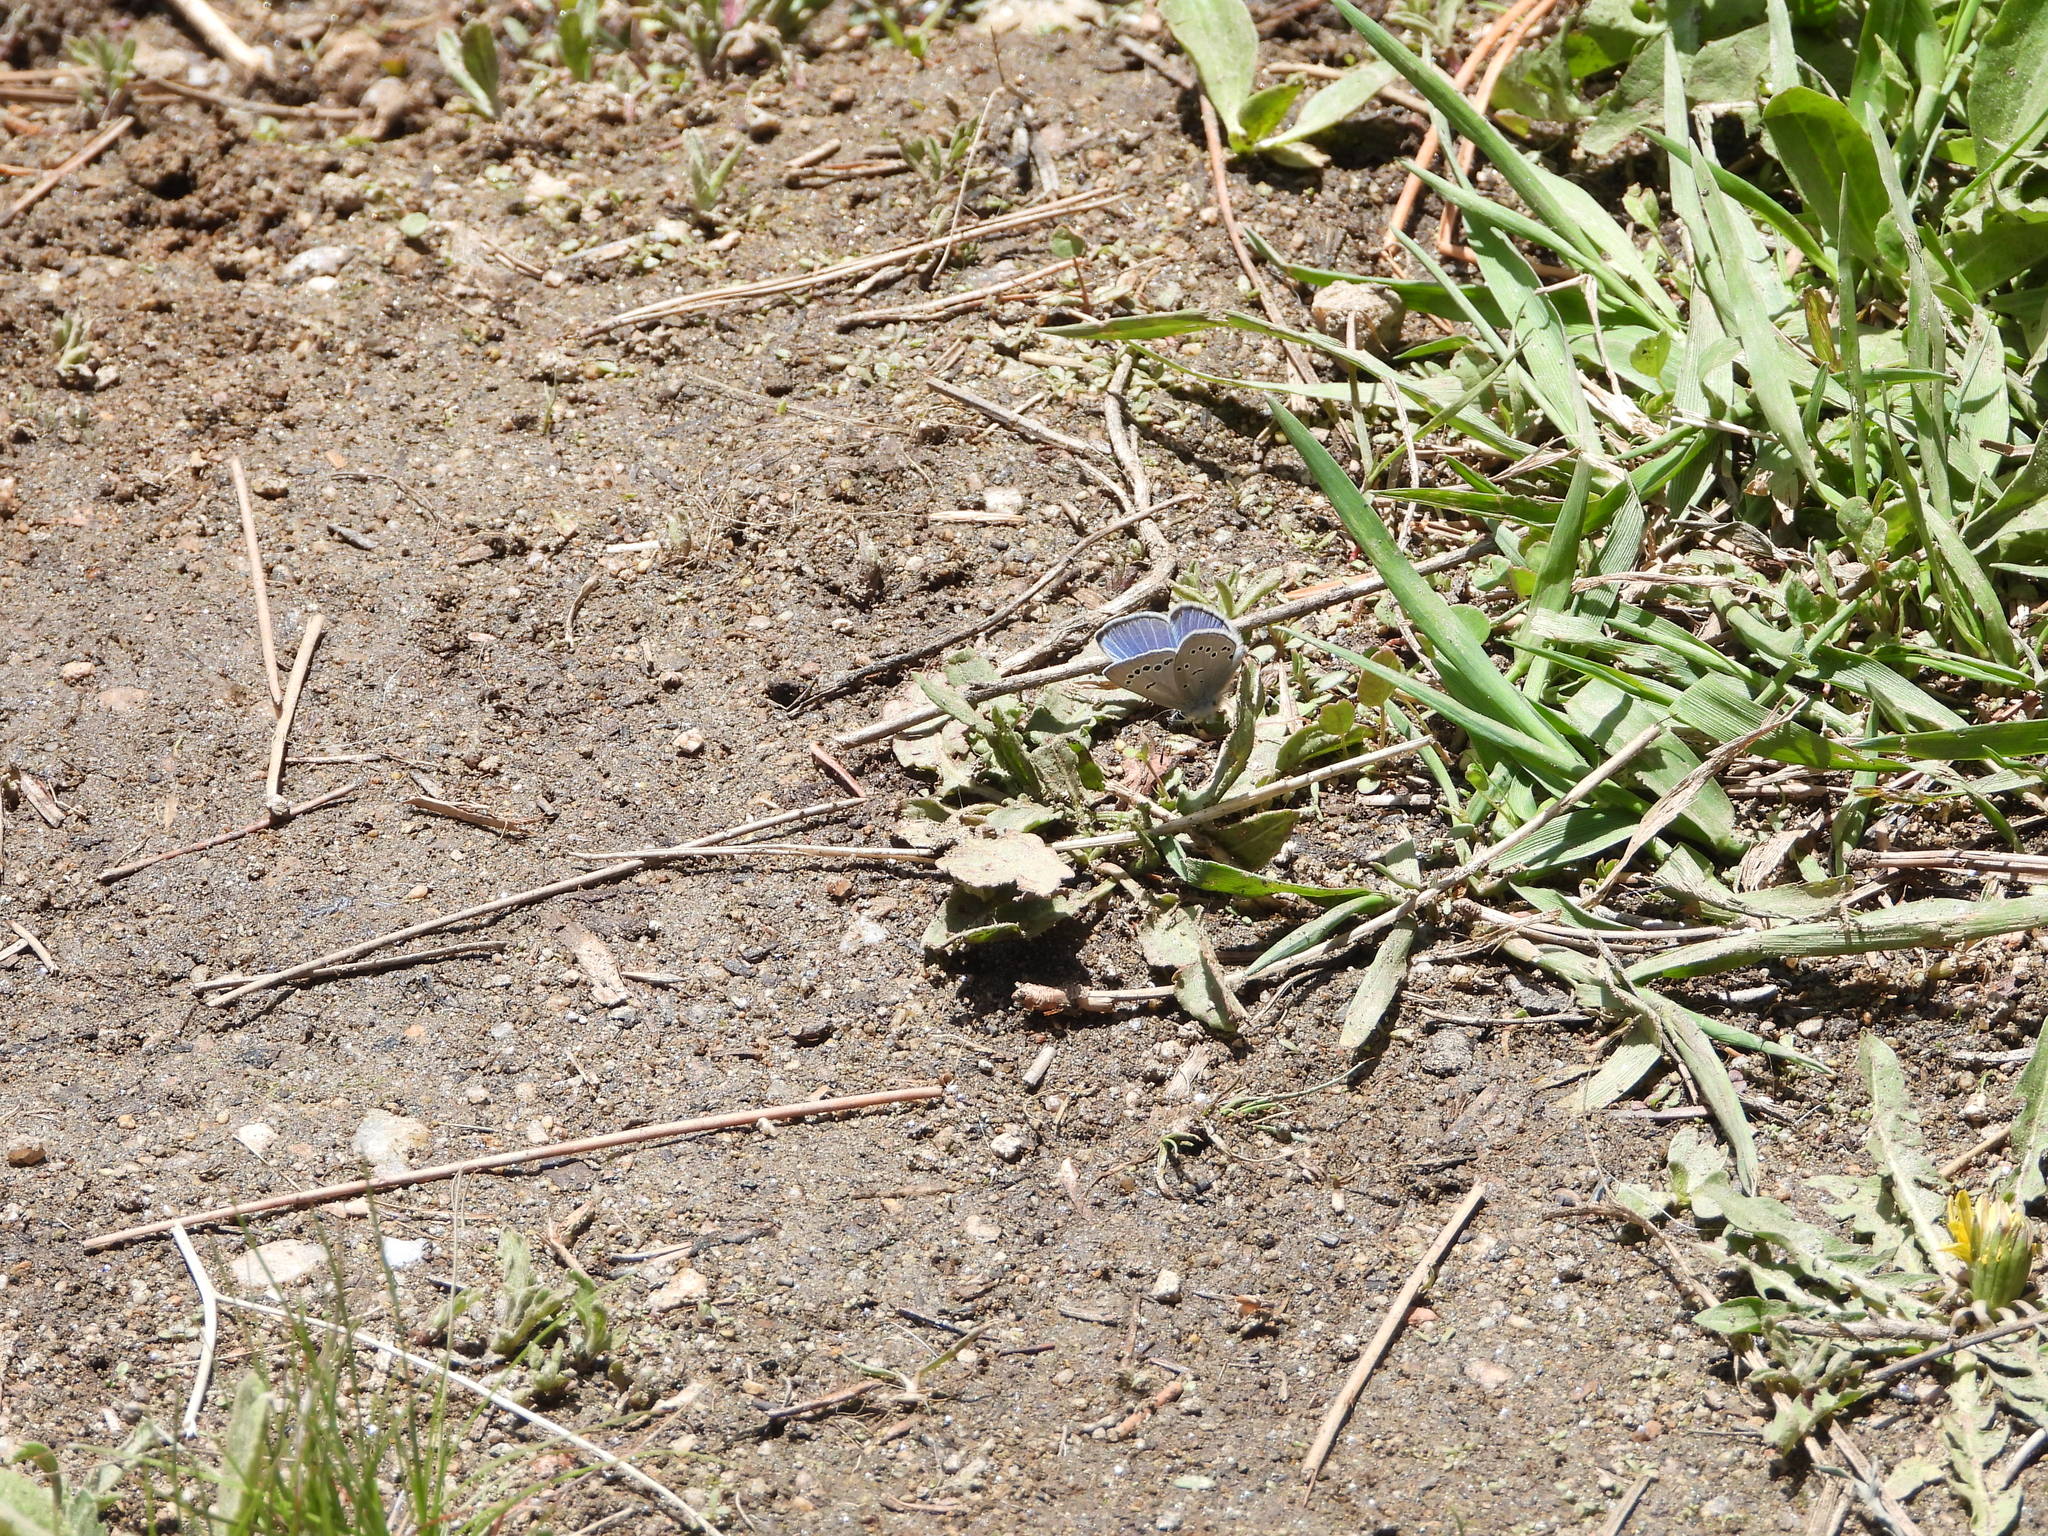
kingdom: Animalia
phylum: Arthropoda
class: Insecta
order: Lepidoptera
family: Lycaenidae
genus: Glaucopsyche
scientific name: Glaucopsyche lygdamus
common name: Silvery blue
